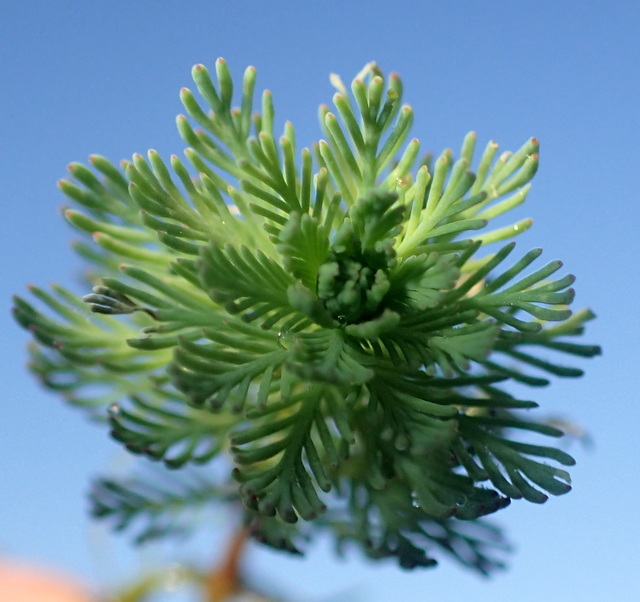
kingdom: Plantae
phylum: Tracheophyta
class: Magnoliopsida
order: Saxifragales
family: Haloragaceae
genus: Myriophyllum
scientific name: Myriophyllum aquaticum
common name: Parrot's feather
